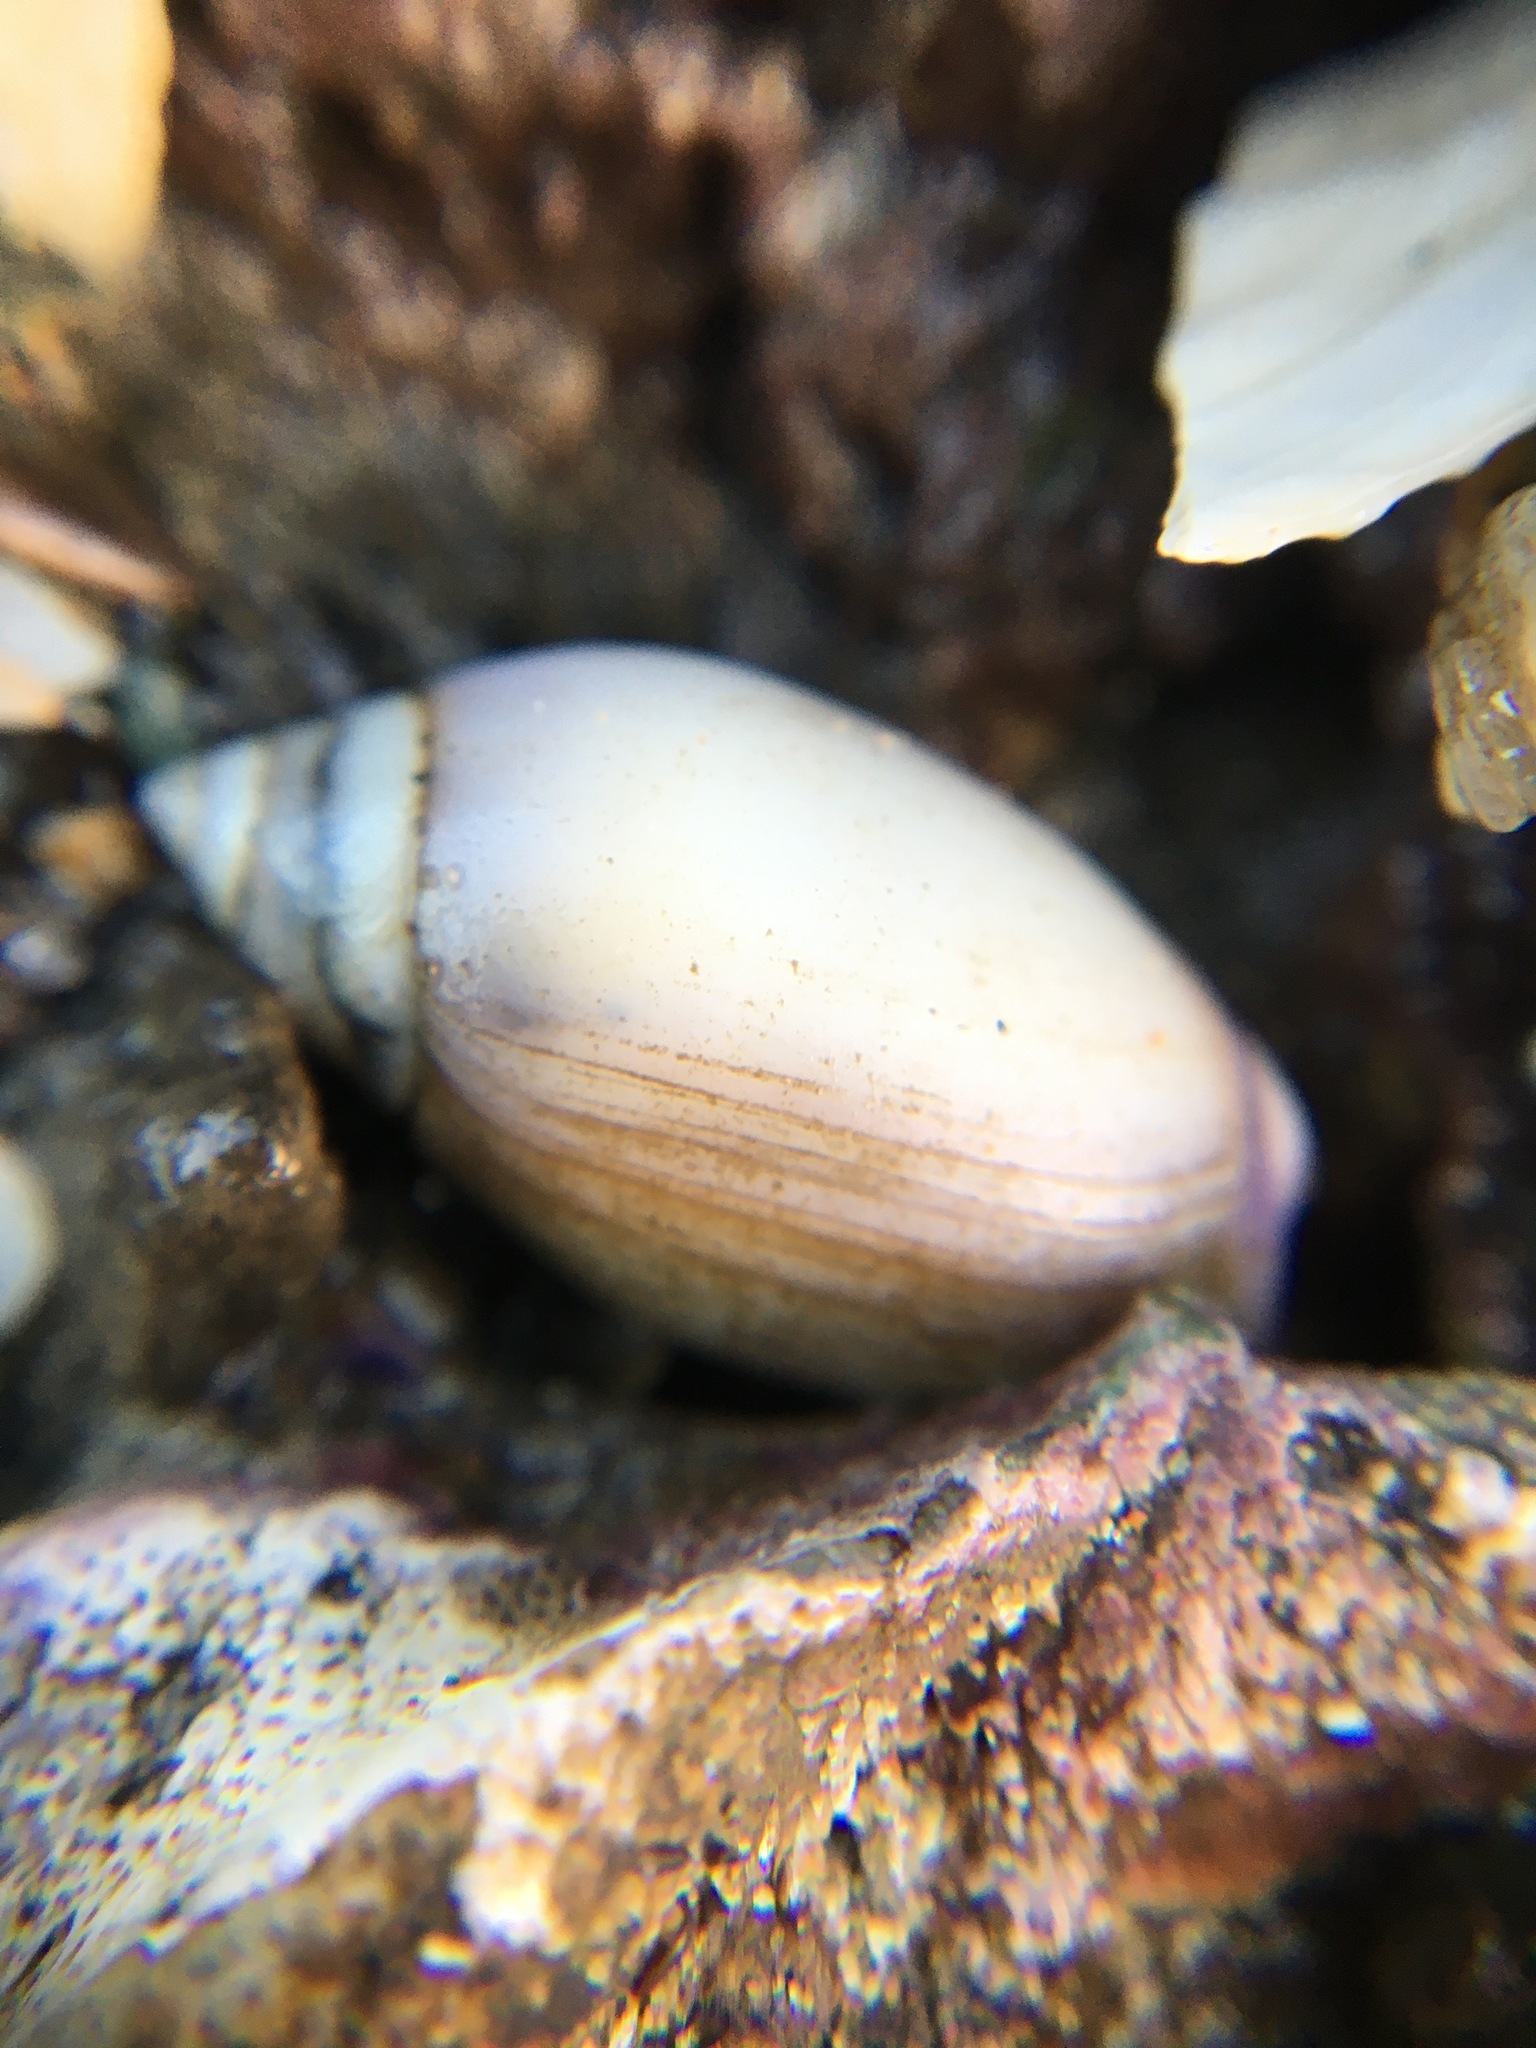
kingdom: Animalia
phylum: Mollusca
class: Gastropoda
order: Neogastropoda
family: Olividae
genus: Callianax
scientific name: Callianax biplicata
